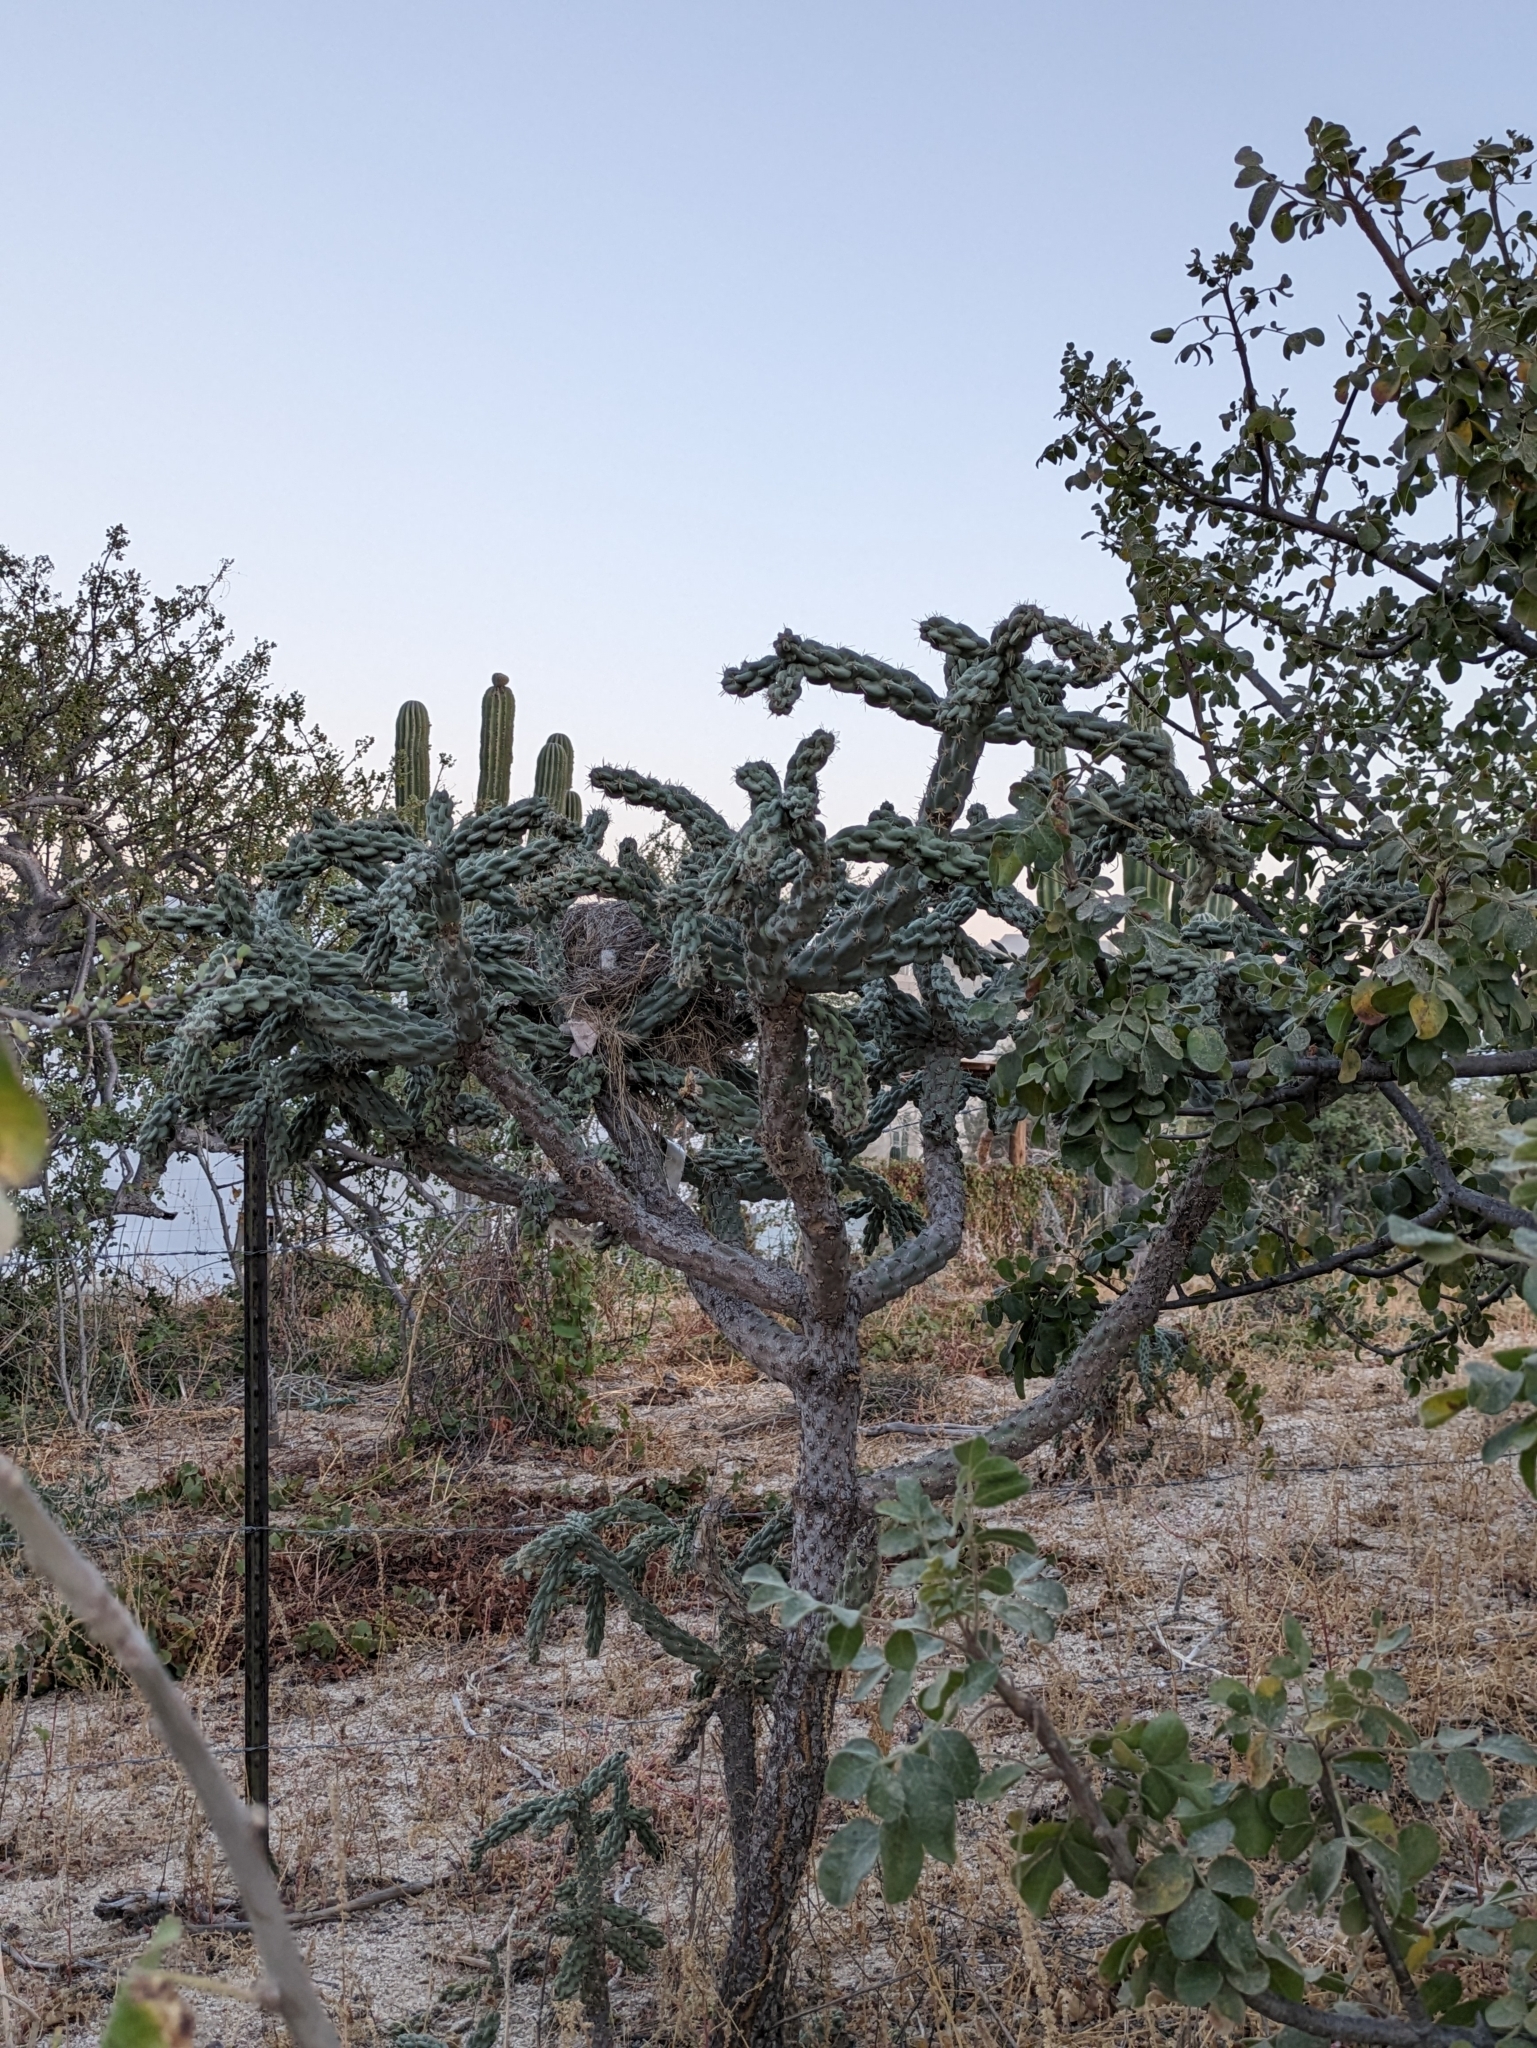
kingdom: Plantae
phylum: Tracheophyta
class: Magnoliopsida
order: Caryophyllales
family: Cactaceae
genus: Cylindropuntia
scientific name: Cylindropuntia cholla
